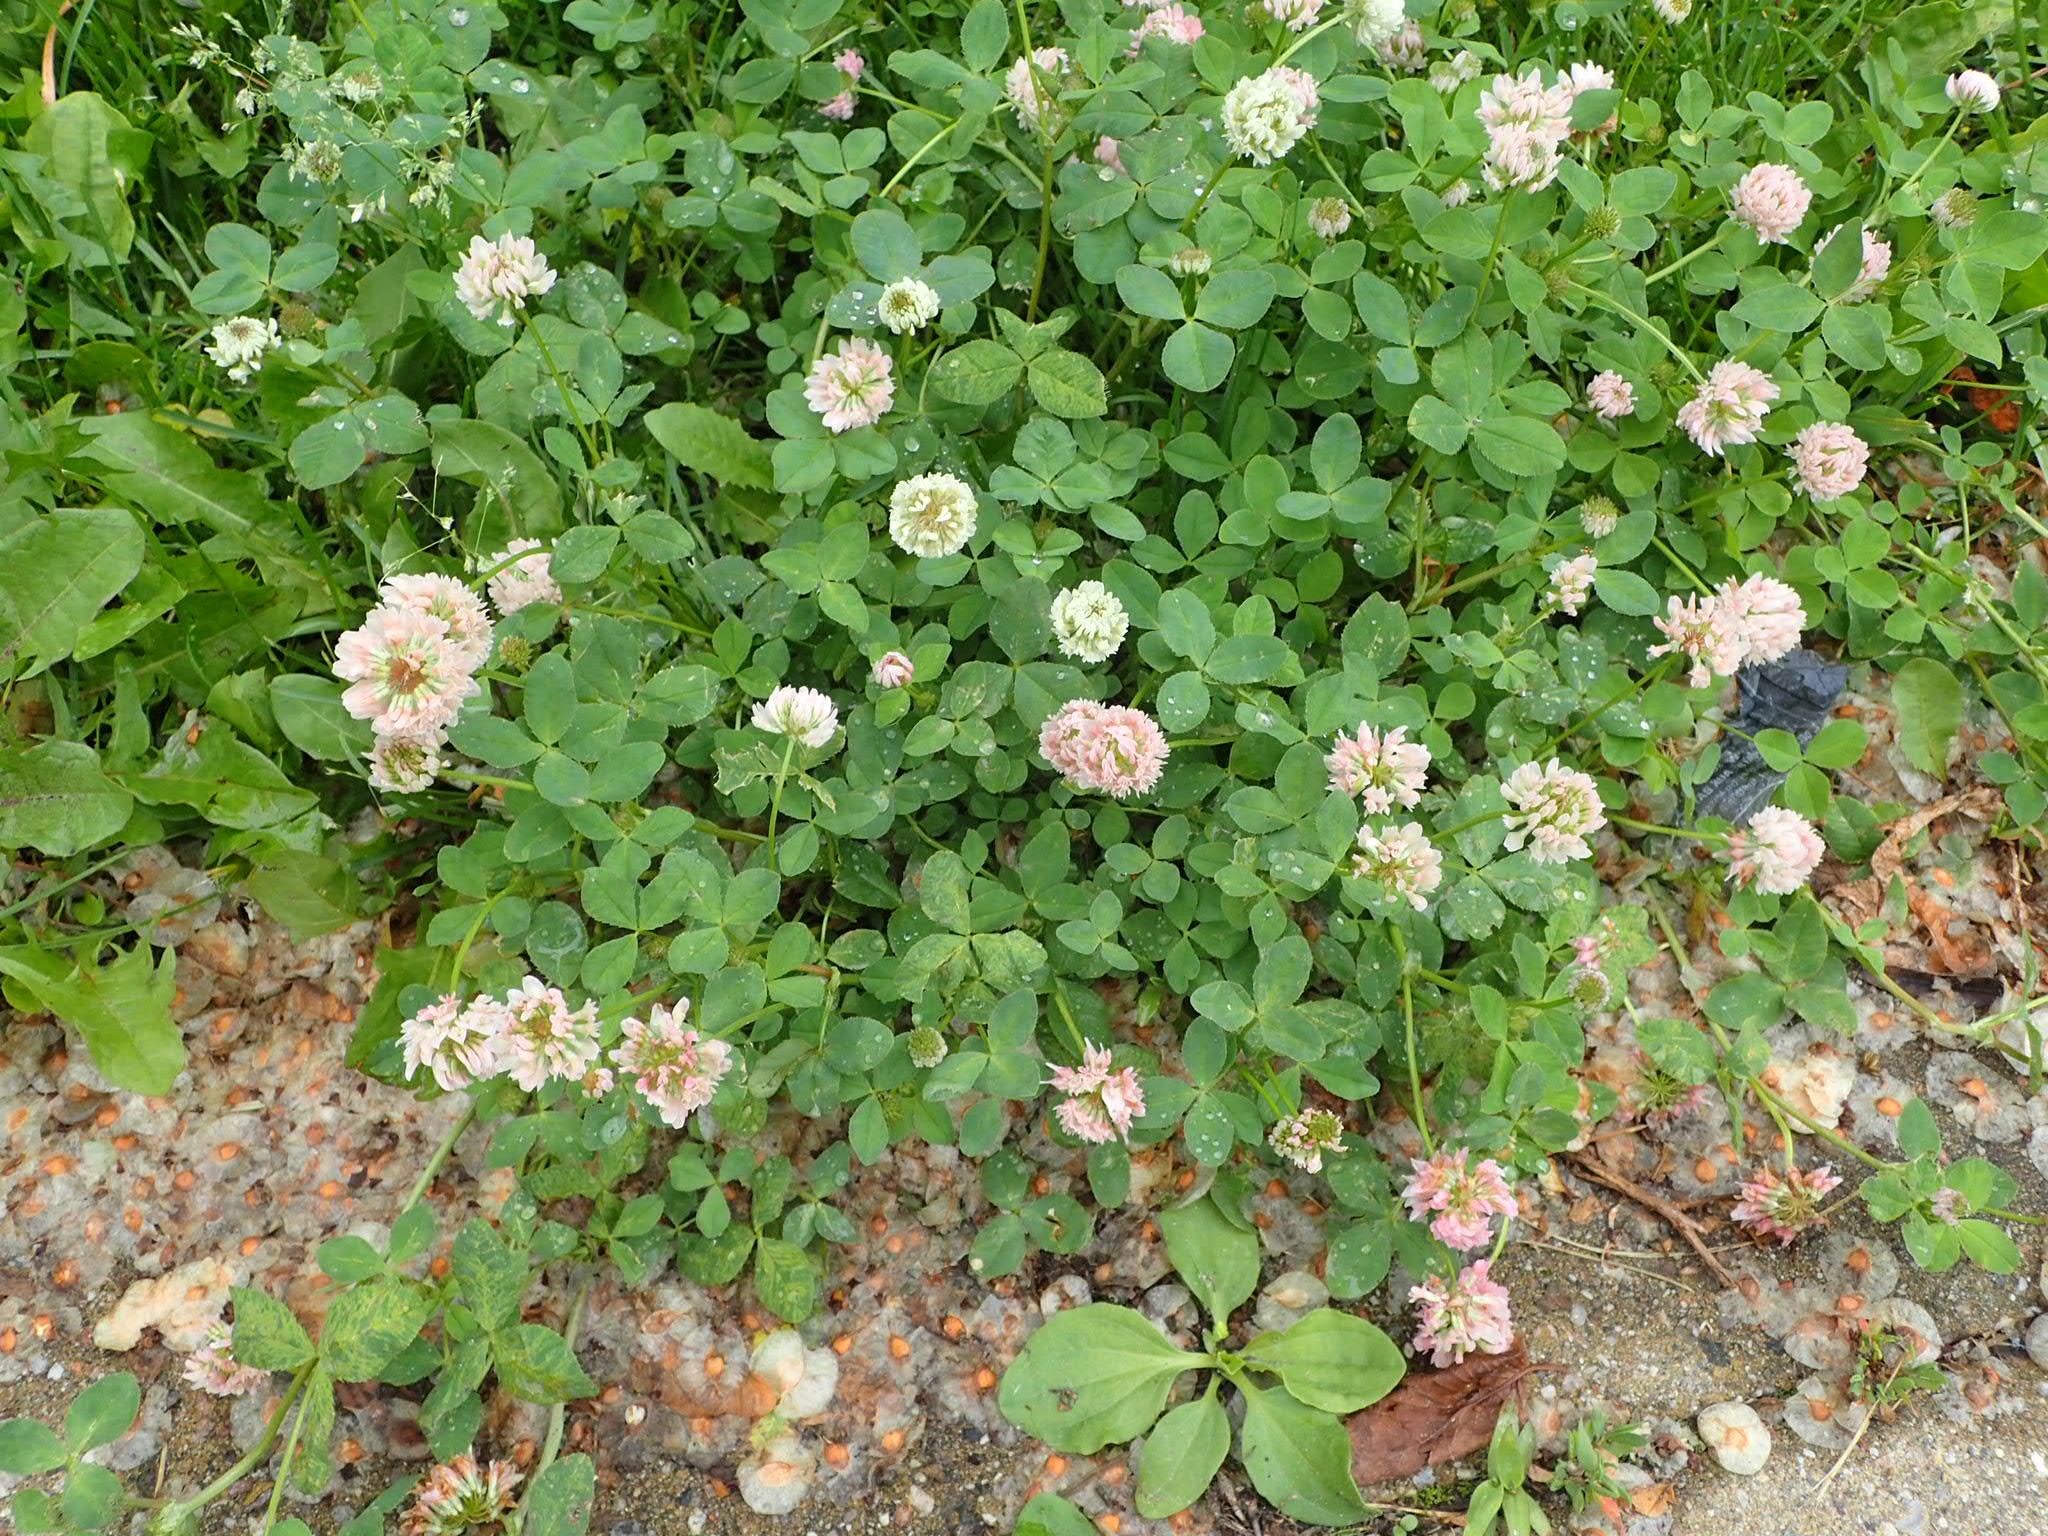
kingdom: Plantae
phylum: Tracheophyta
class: Magnoliopsida
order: Fabales
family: Fabaceae
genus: Trifolium
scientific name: Trifolium repens
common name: White clover
